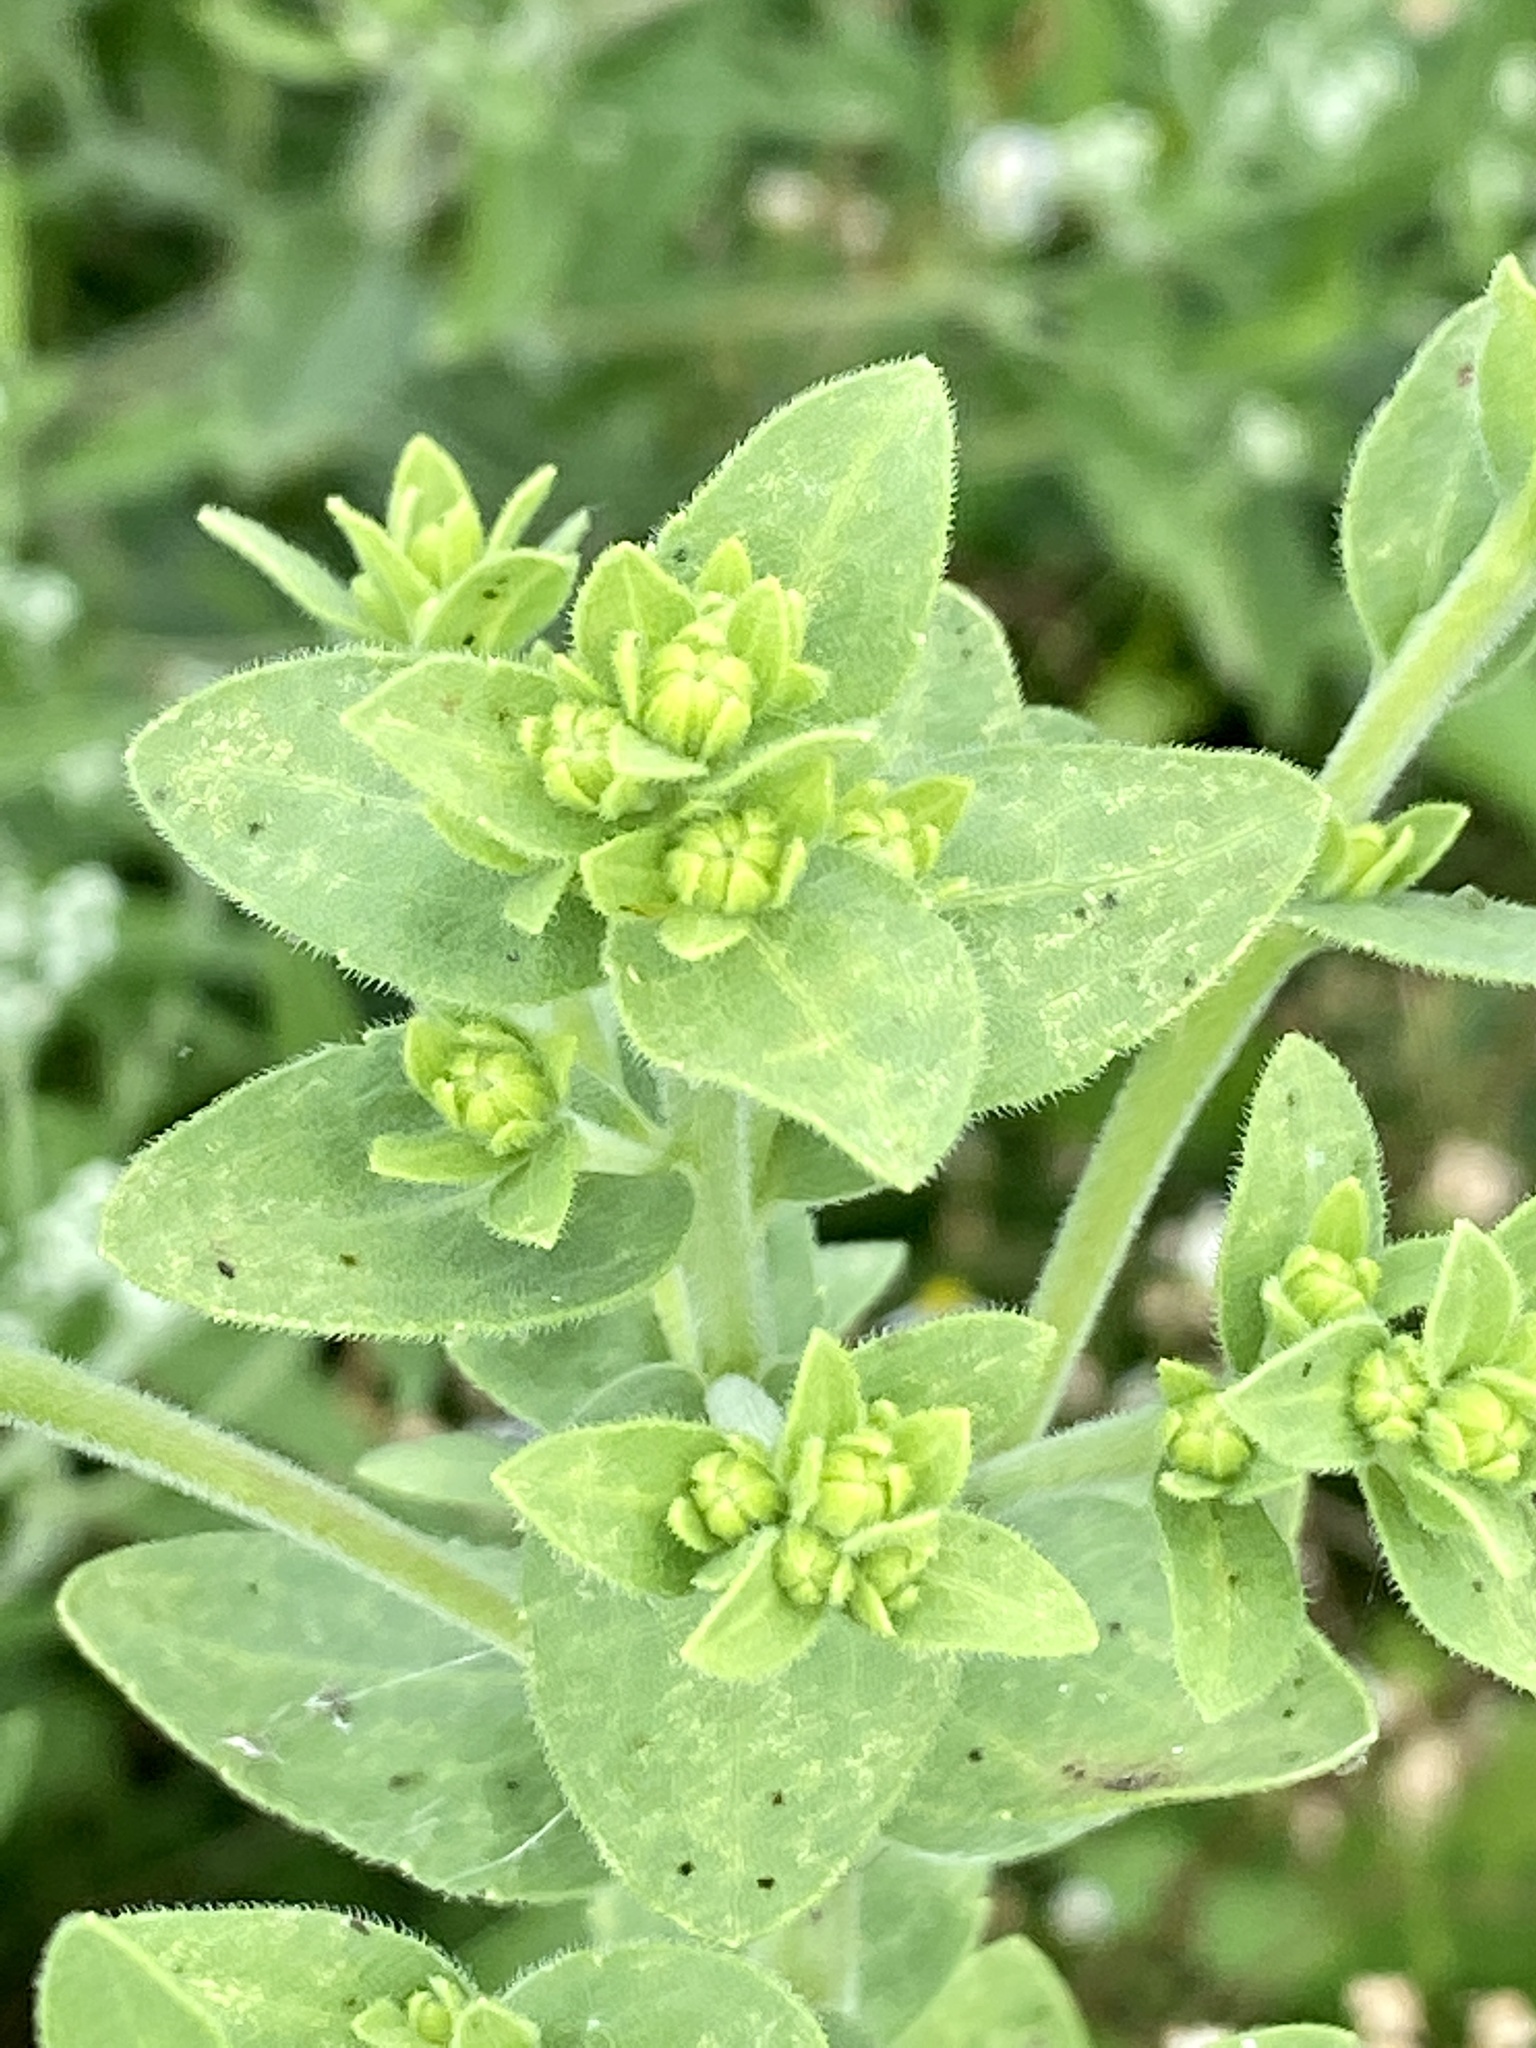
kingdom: Plantae
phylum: Tracheophyta
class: Magnoliopsida
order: Asterales
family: Asteraceae
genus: Solidago
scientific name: Solidago rigida
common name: Rigid goldenrod
